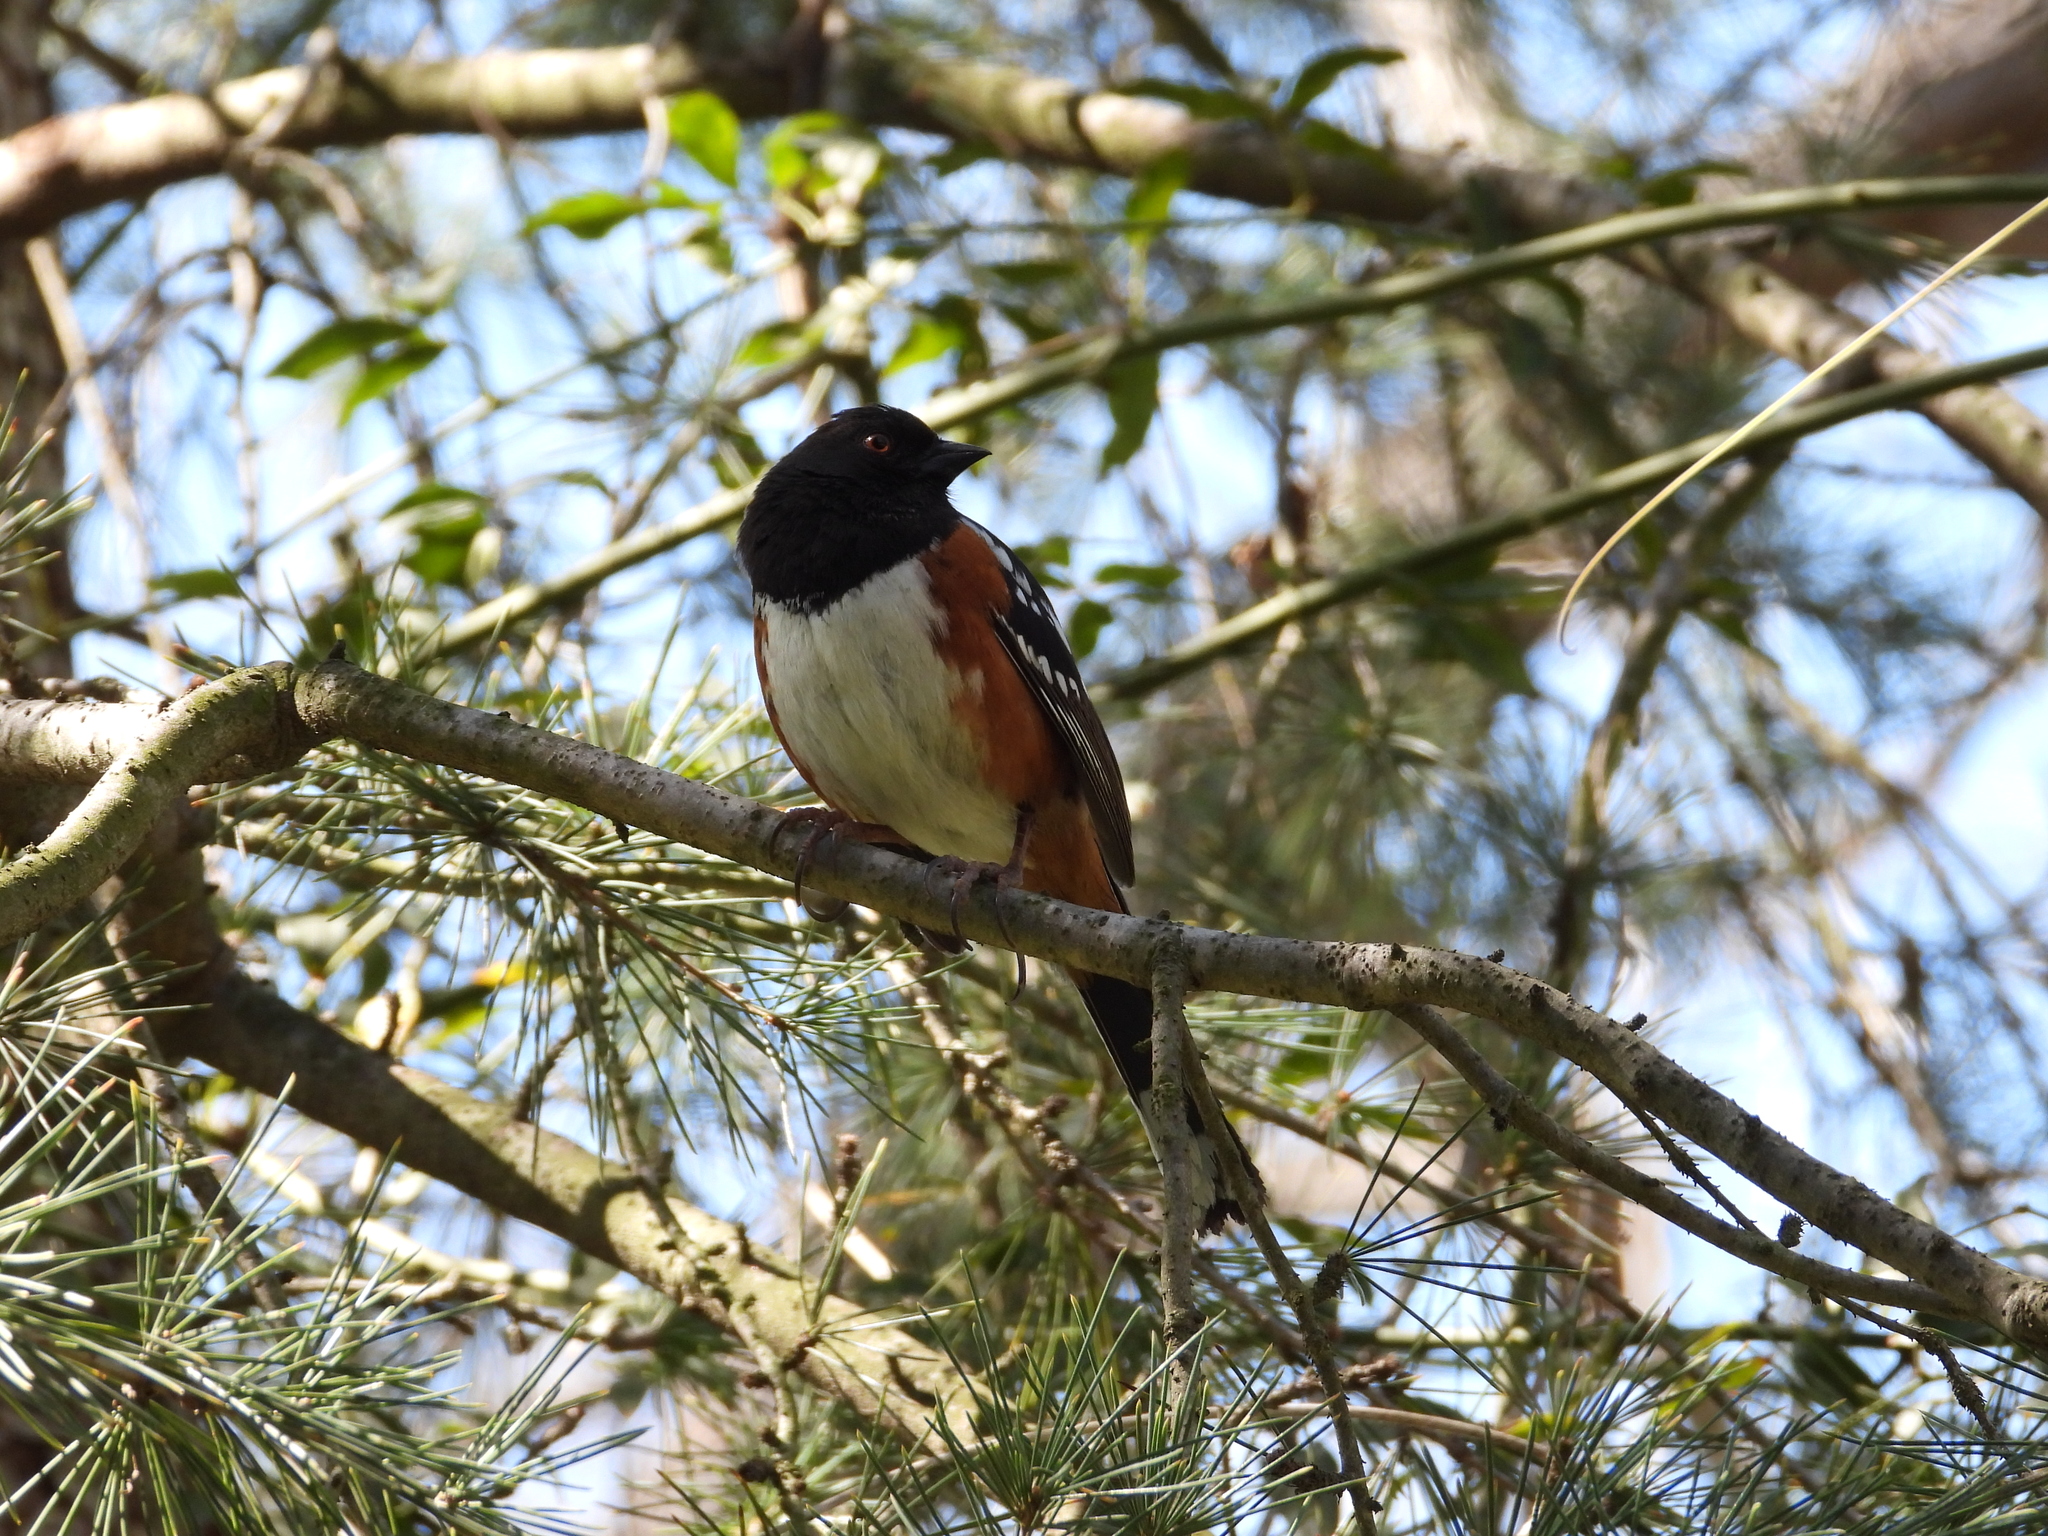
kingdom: Animalia
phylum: Chordata
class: Aves
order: Passeriformes
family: Passerellidae
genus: Pipilo
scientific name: Pipilo maculatus
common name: Spotted towhee
